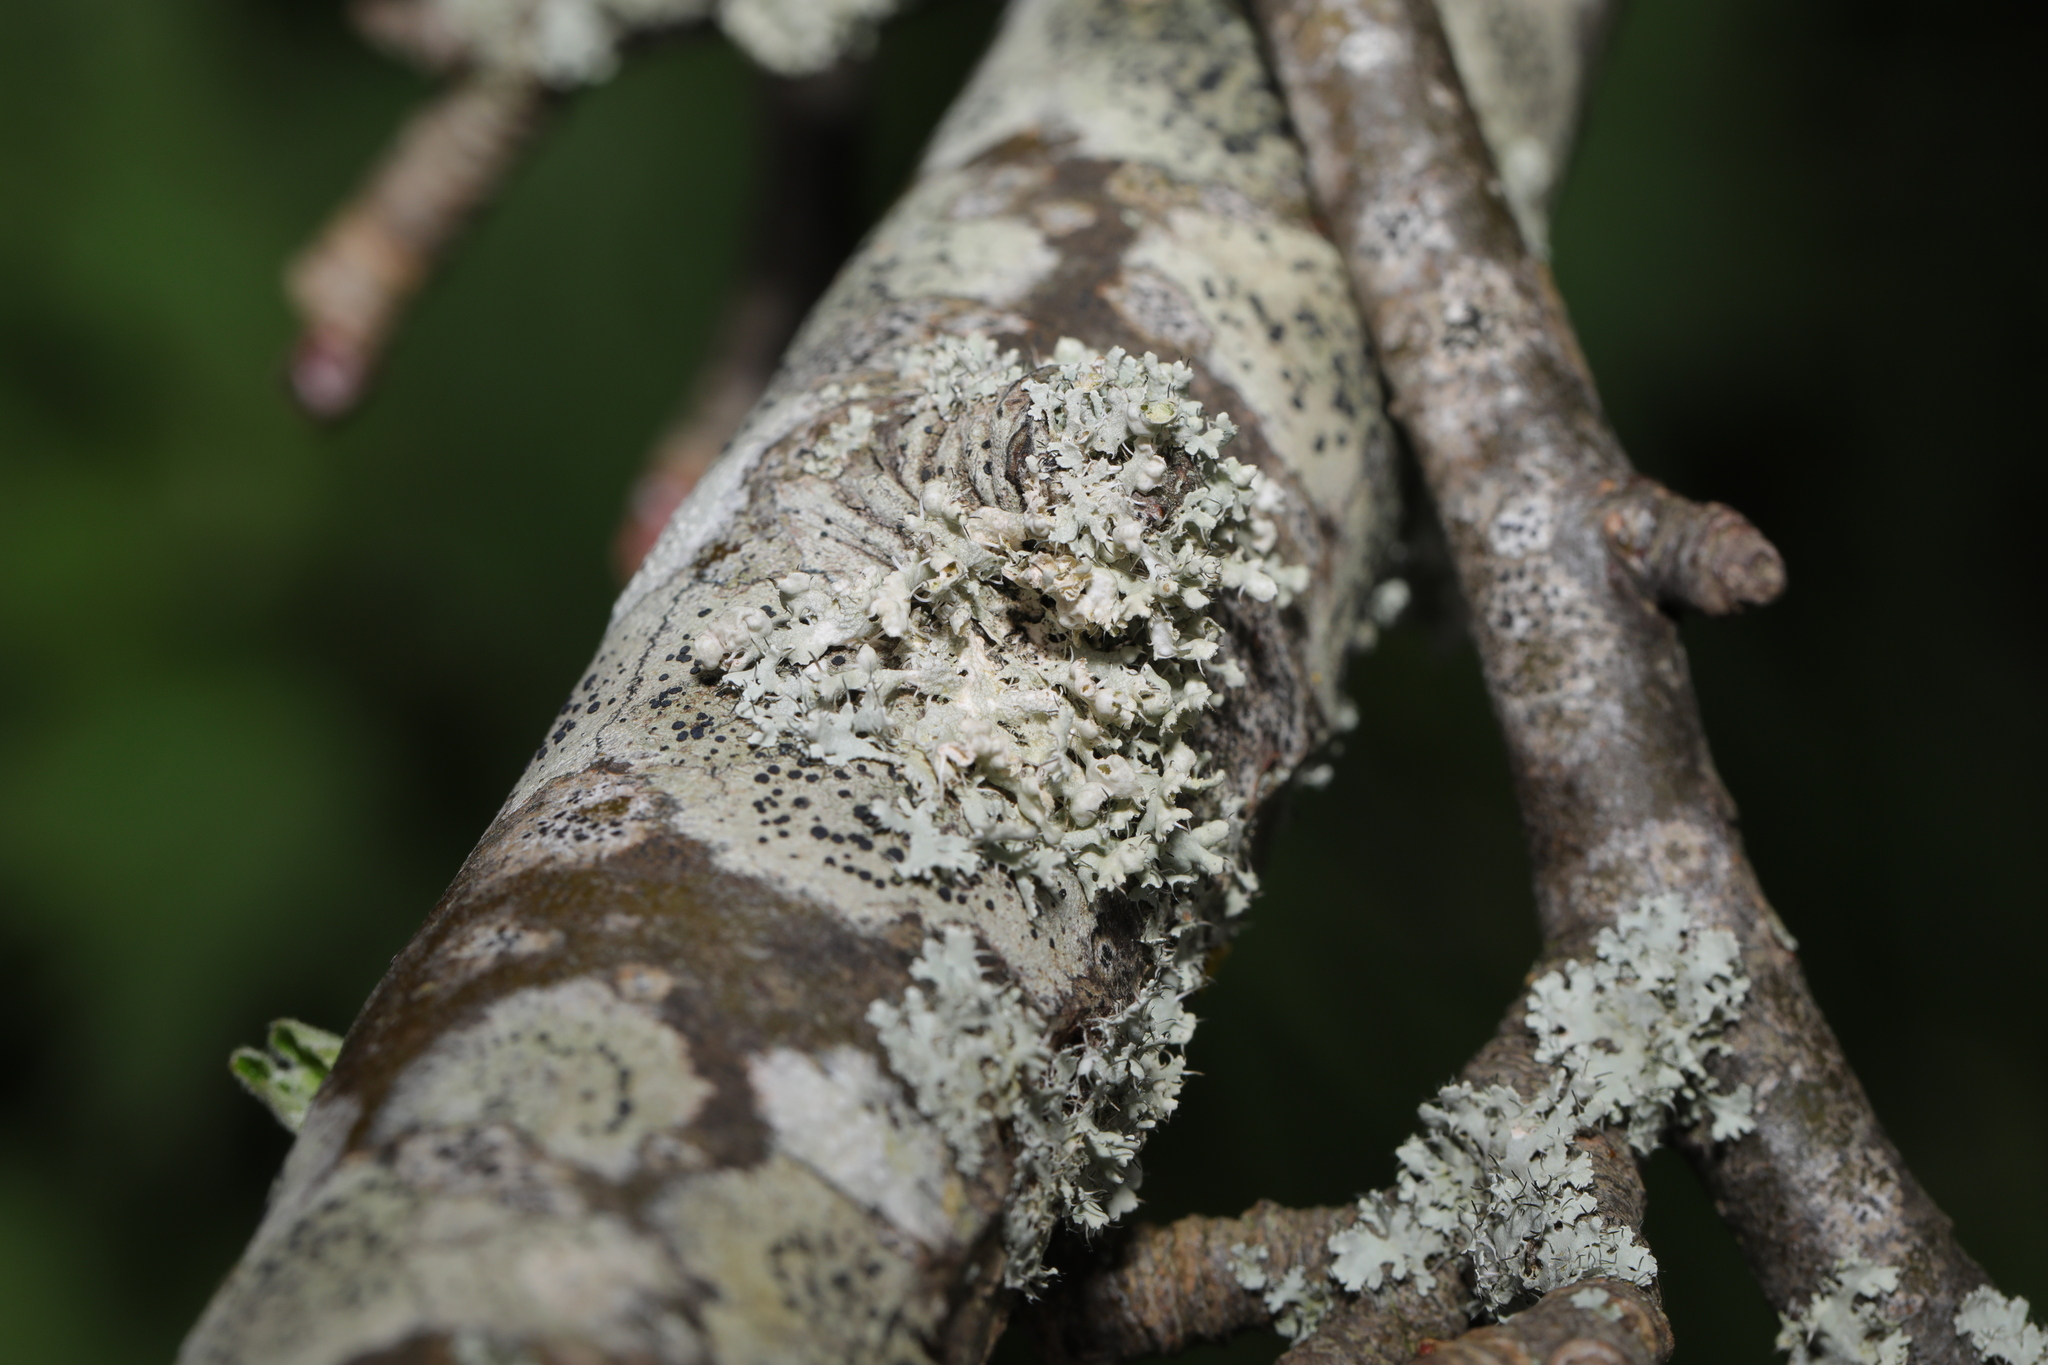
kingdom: Fungi
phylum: Ascomycota
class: Lecanoromycetes
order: Caliciales
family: Physciaceae
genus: Physcia
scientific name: Physcia adscendens
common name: Hooded rosette lichen
